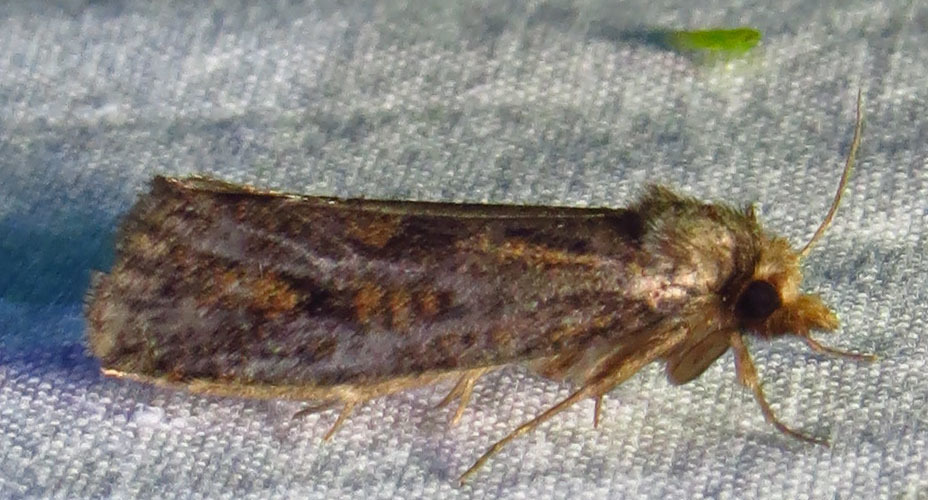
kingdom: Animalia
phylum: Arthropoda
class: Insecta
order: Lepidoptera
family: Tineidae
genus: Acrolophus
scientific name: Acrolophus popeanella
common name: Clemens' grass tubeworm moth
